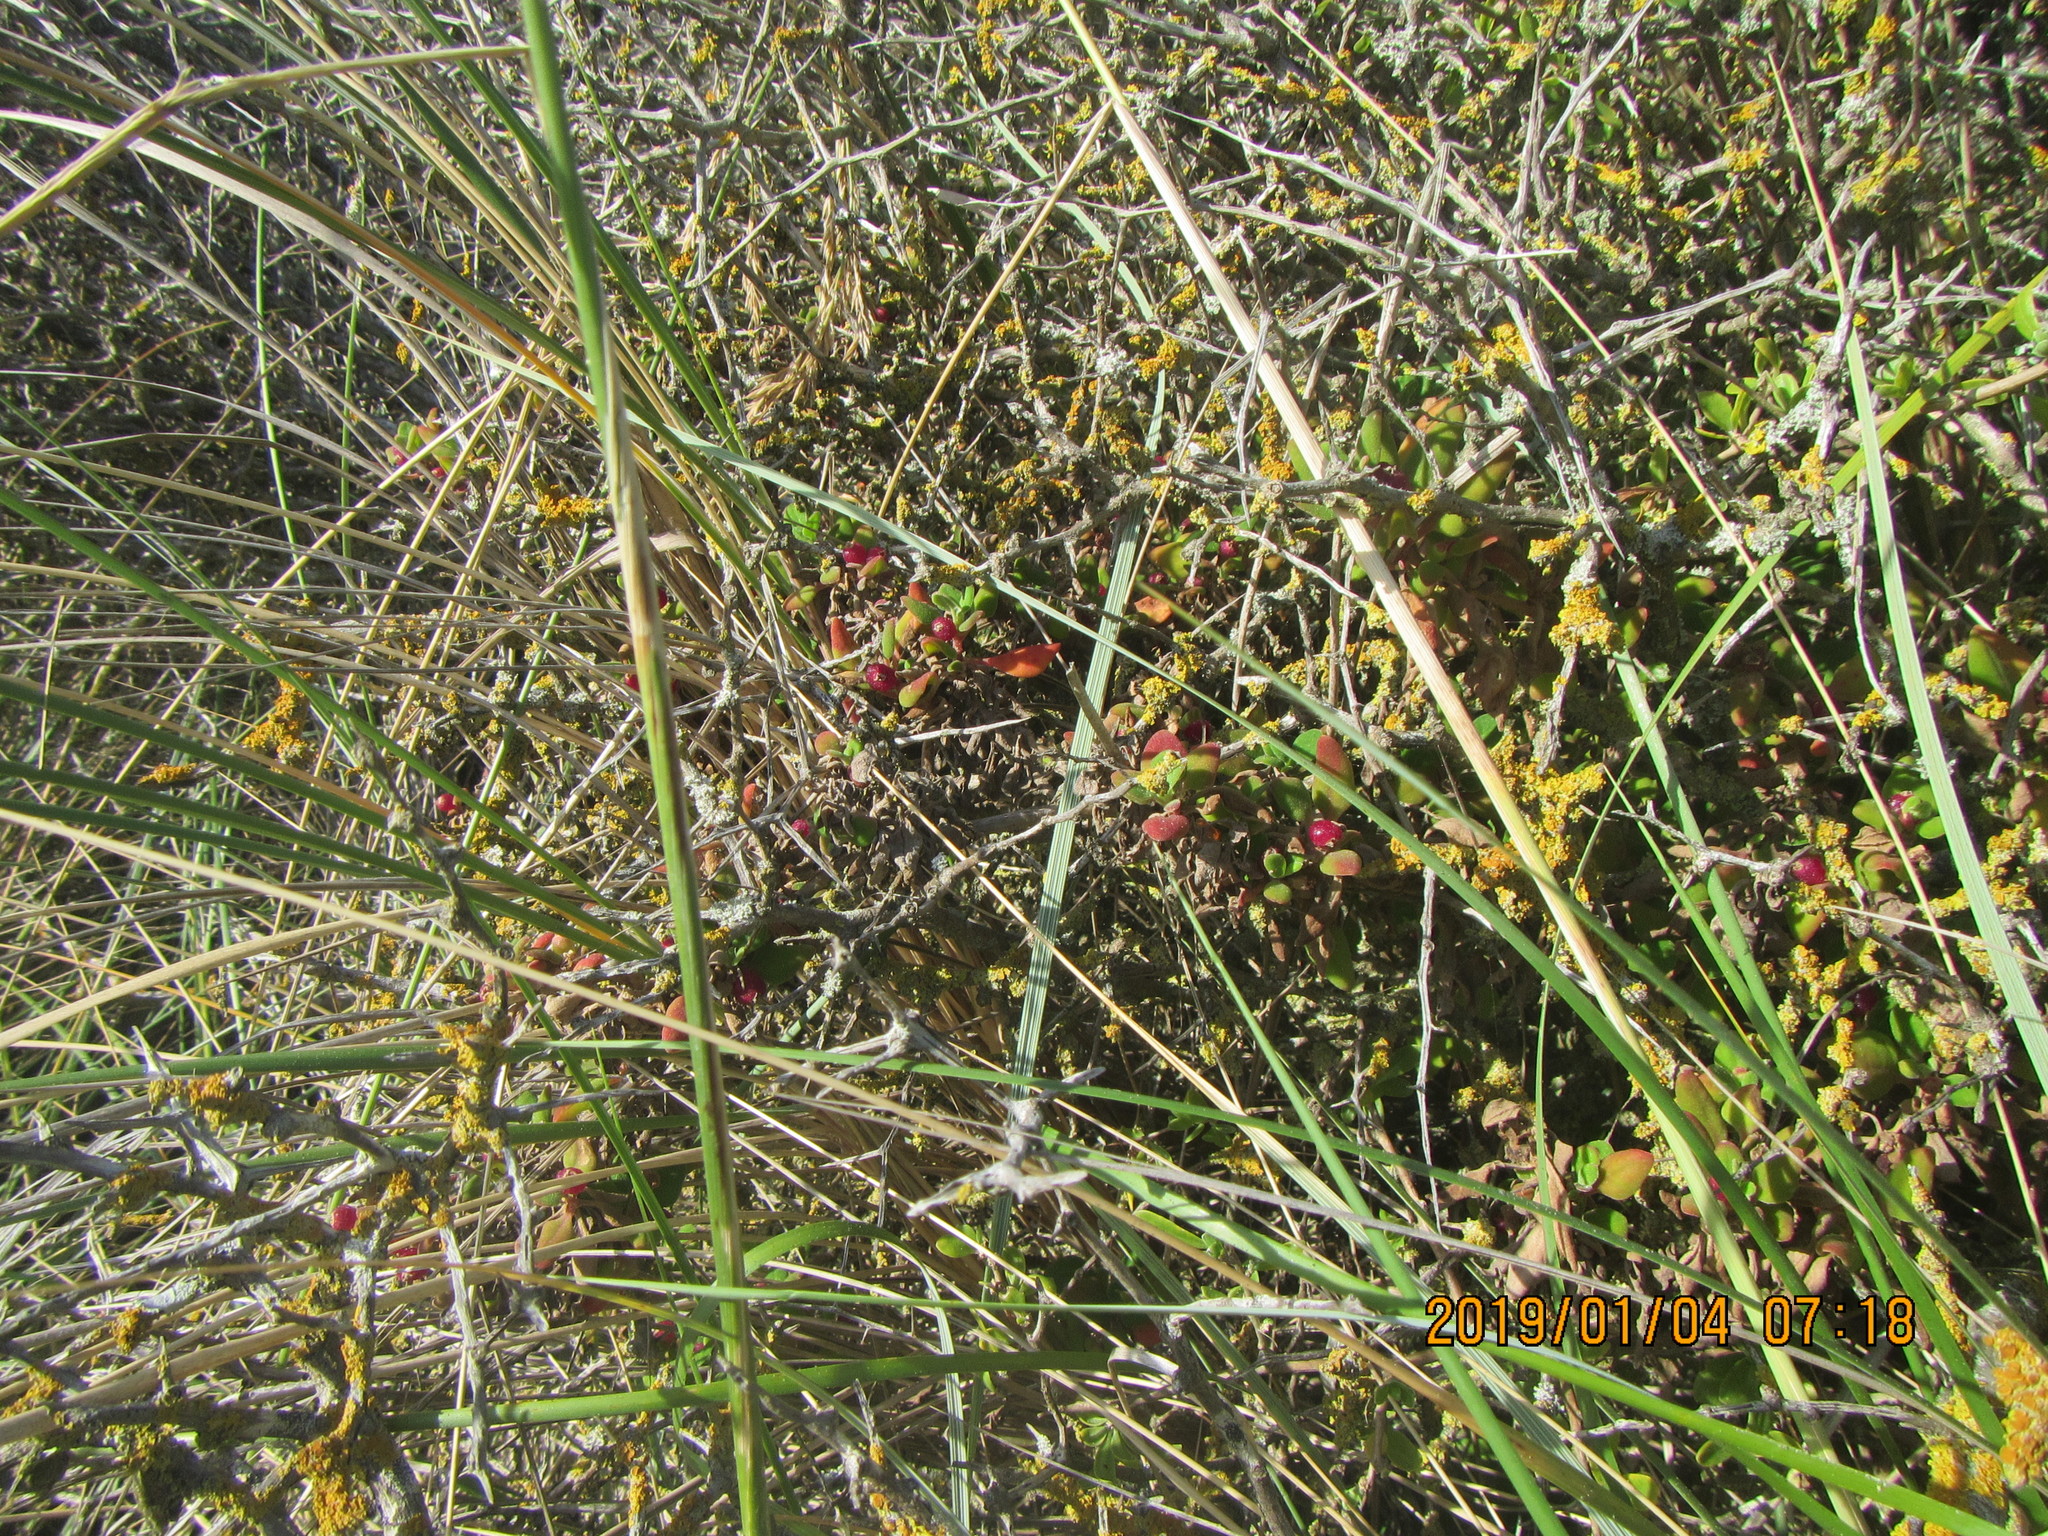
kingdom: Plantae
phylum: Tracheophyta
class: Magnoliopsida
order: Caryophyllales
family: Aizoaceae
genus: Tetragonia
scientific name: Tetragonia implexicoma
